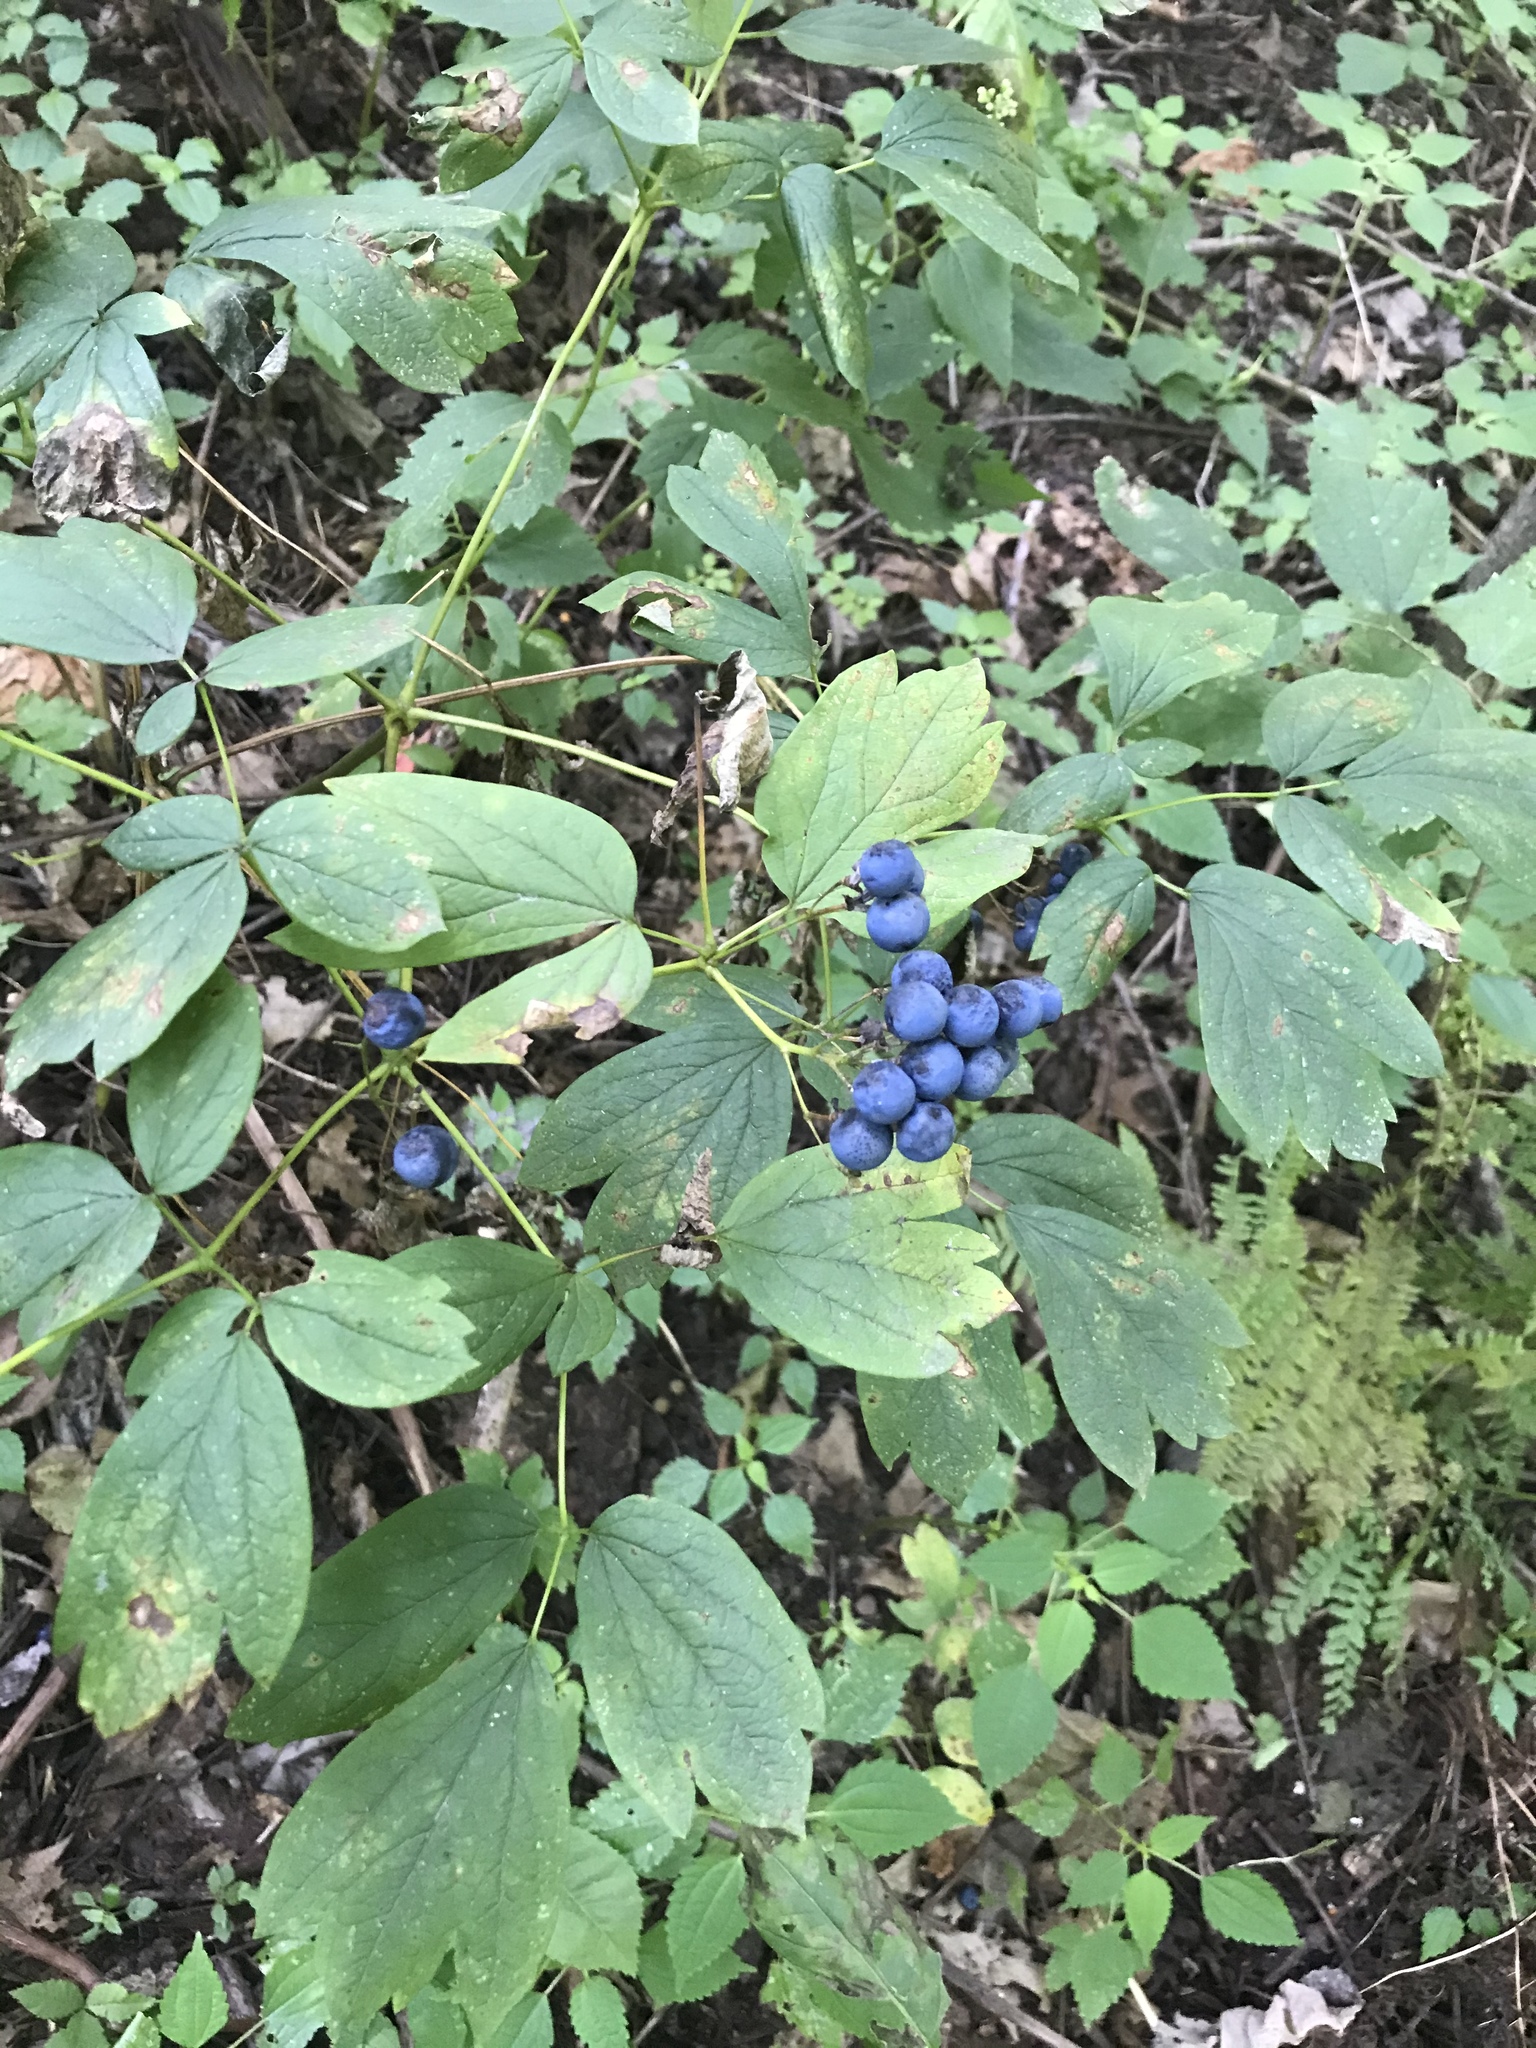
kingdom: Plantae
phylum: Tracheophyta
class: Magnoliopsida
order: Ranunculales
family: Berberidaceae
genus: Caulophyllum
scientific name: Caulophyllum thalictroides
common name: Blue cohosh
